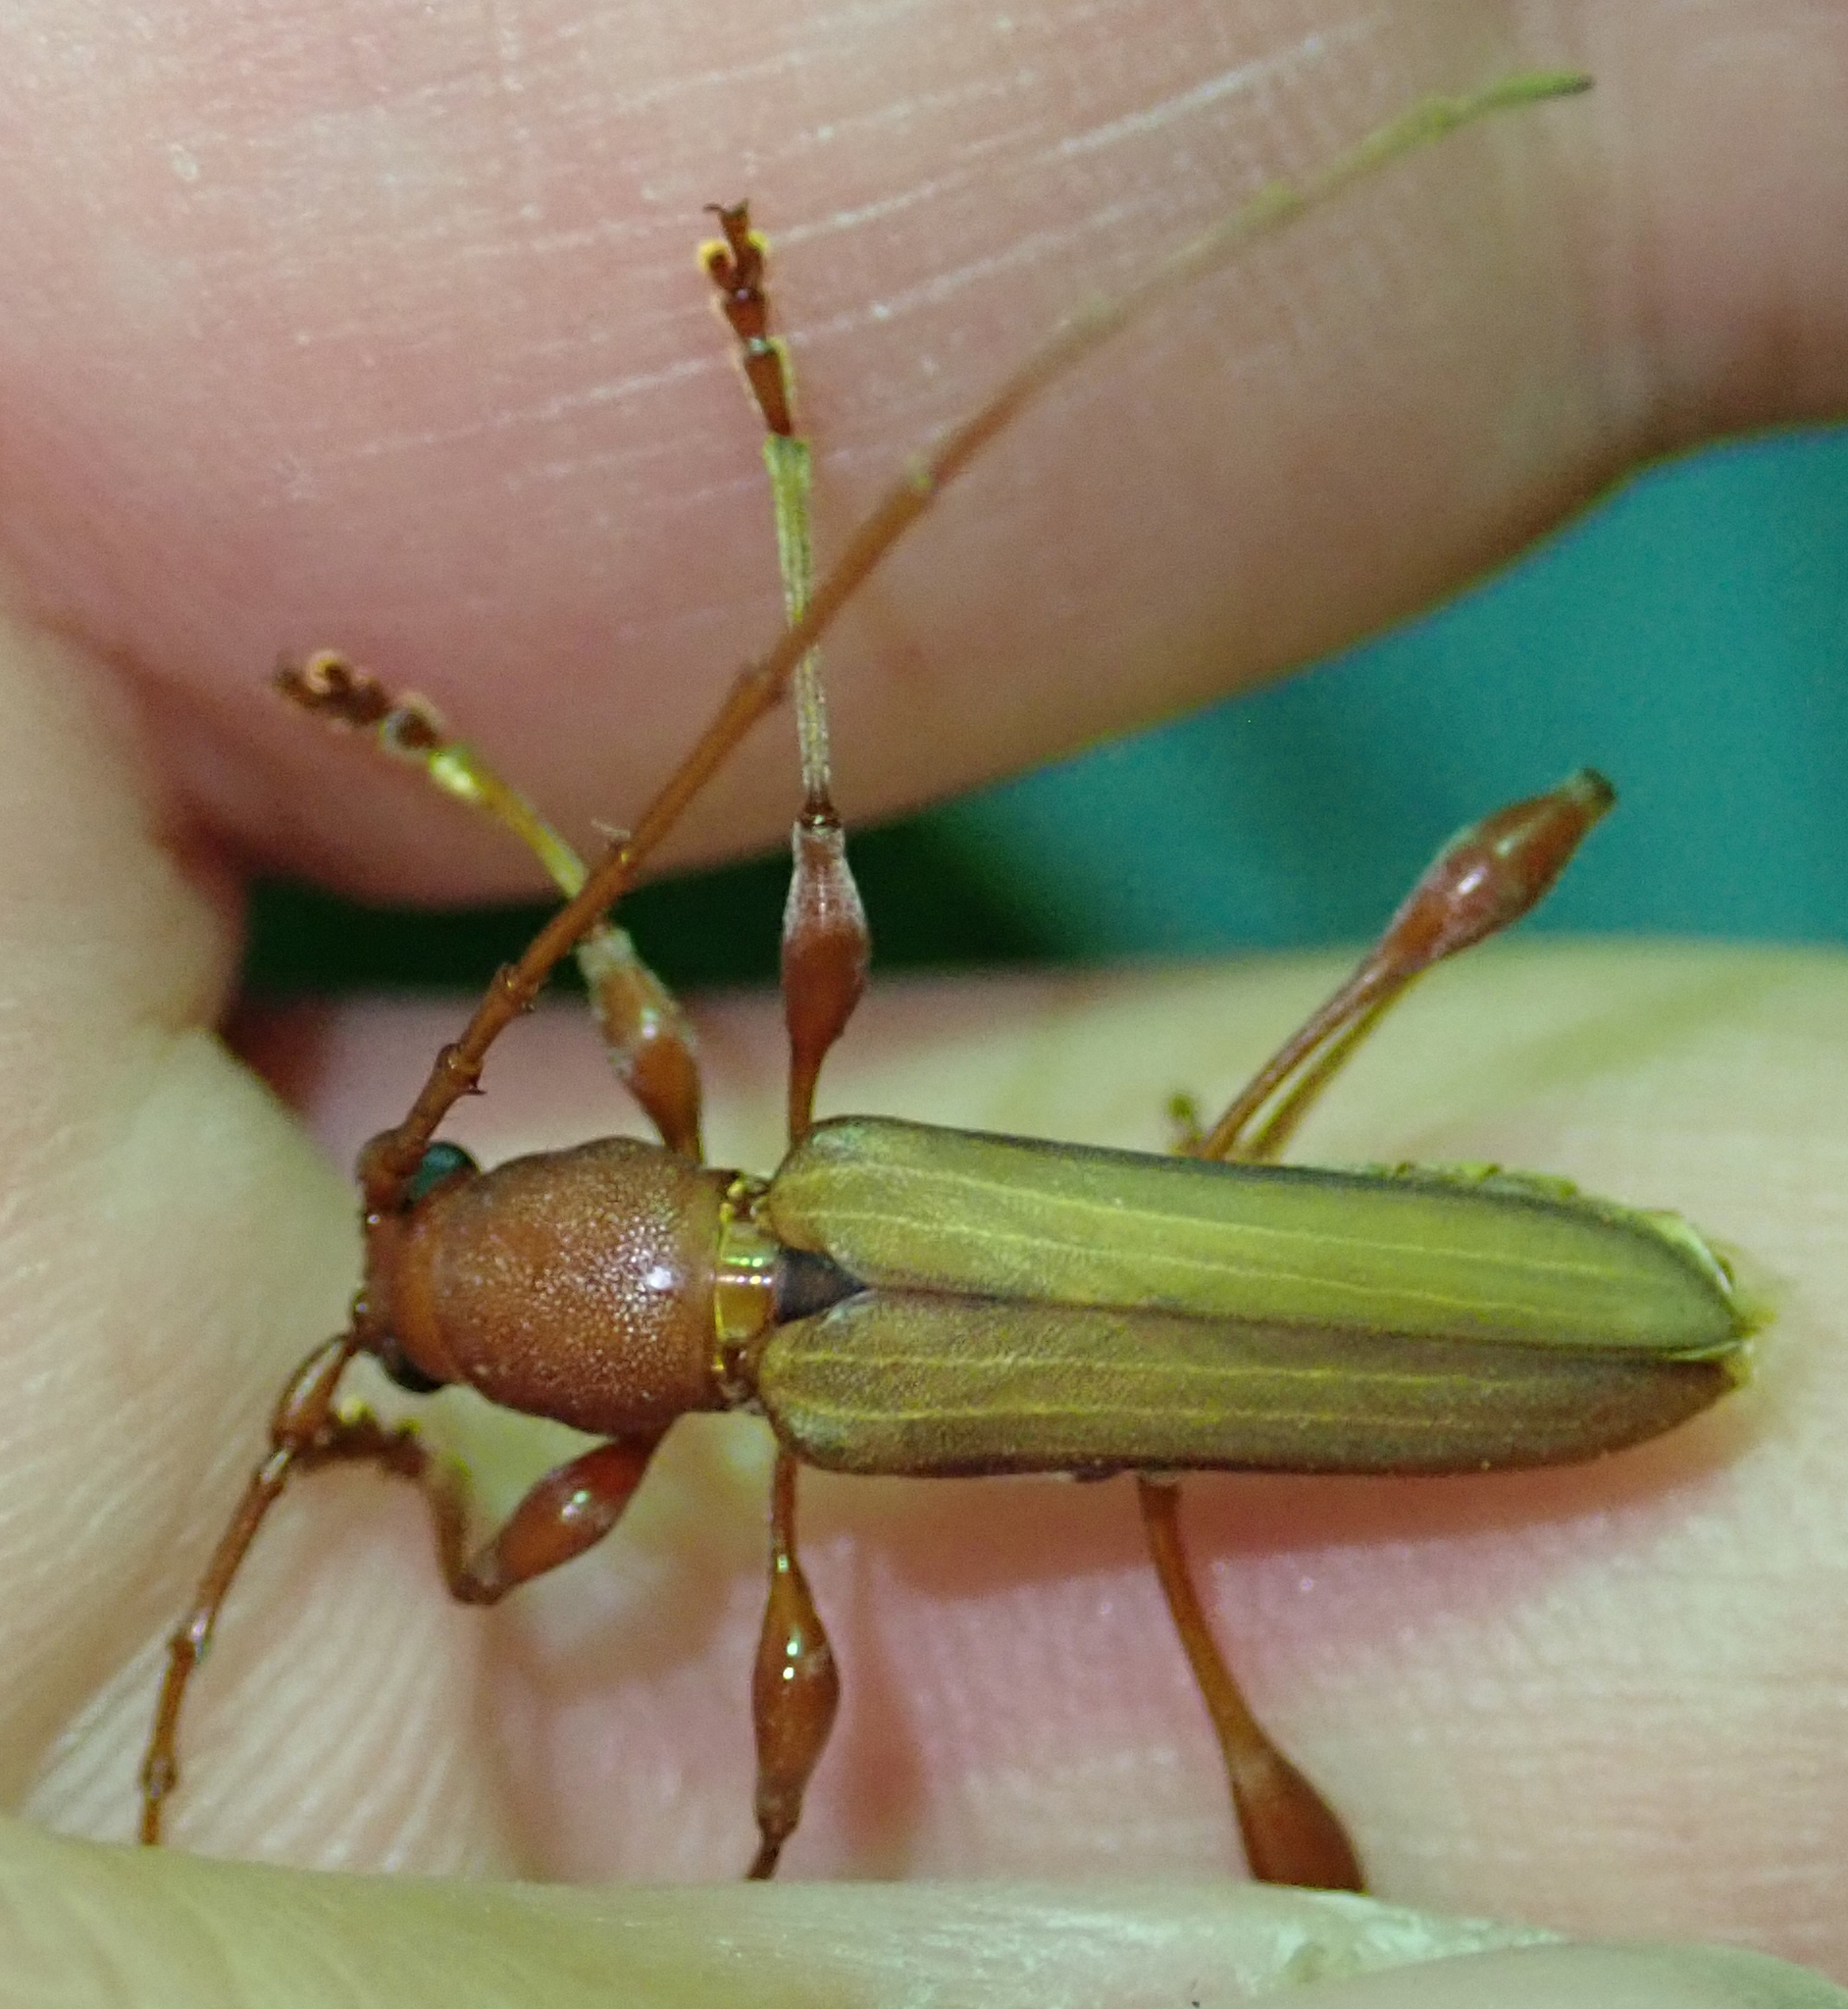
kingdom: Animalia
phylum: Arthropoda
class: Insecta
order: Coleoptera
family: Cerambycidae
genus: Cordylomera
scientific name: Cordylomera karschi
